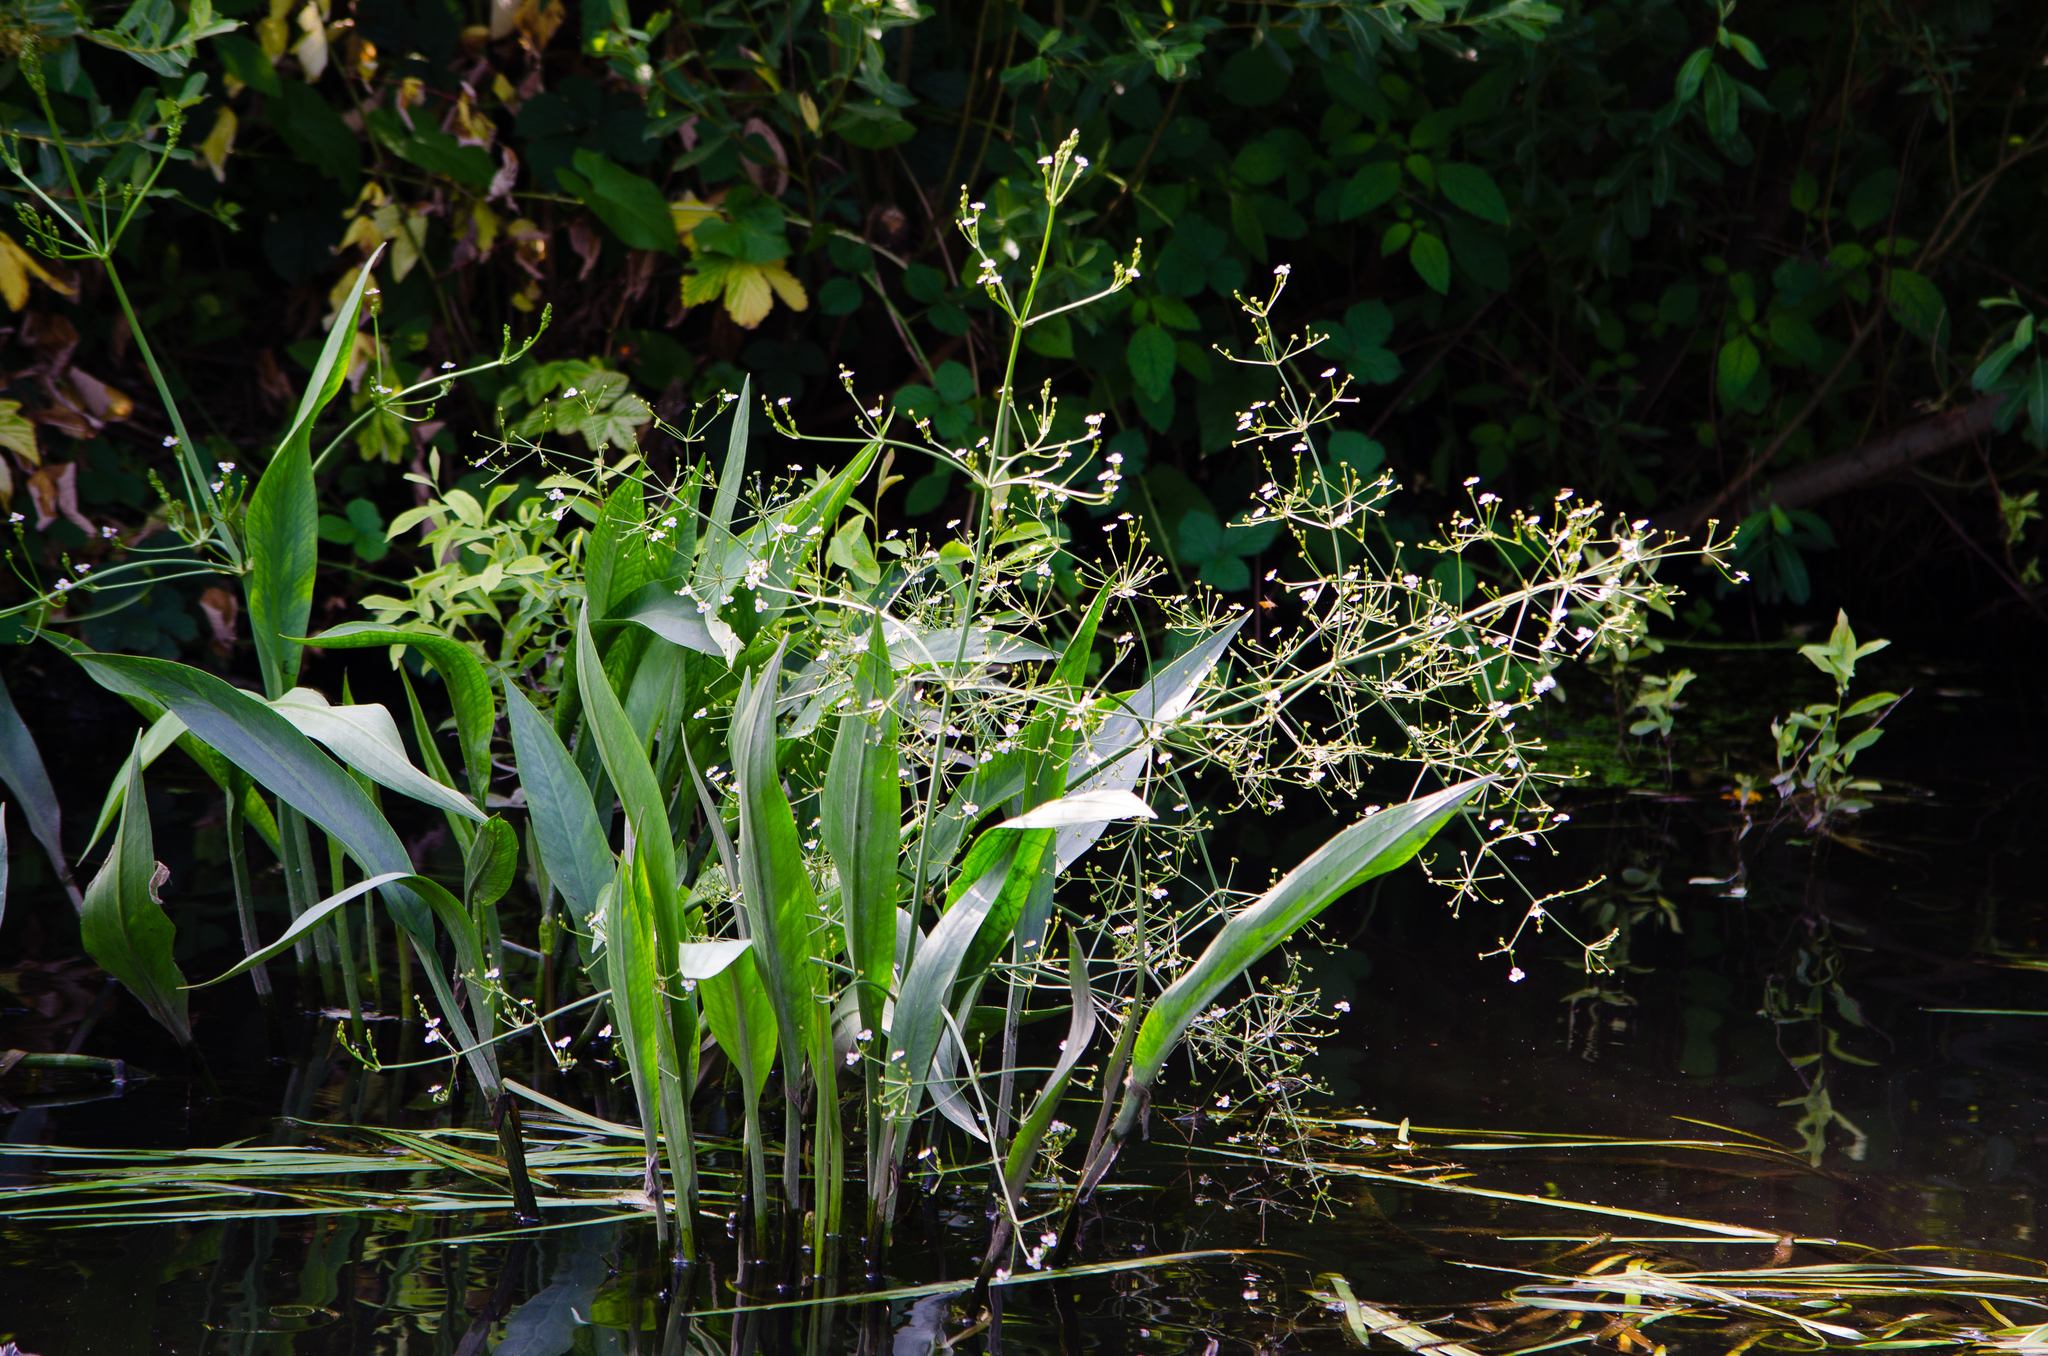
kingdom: Plantae
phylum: Tracheophyta
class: Liliopsida
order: Alismatales
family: Alismataceae
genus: Alisma
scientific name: Alisma lanceolatum
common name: Narrow-leaved water-plantain
